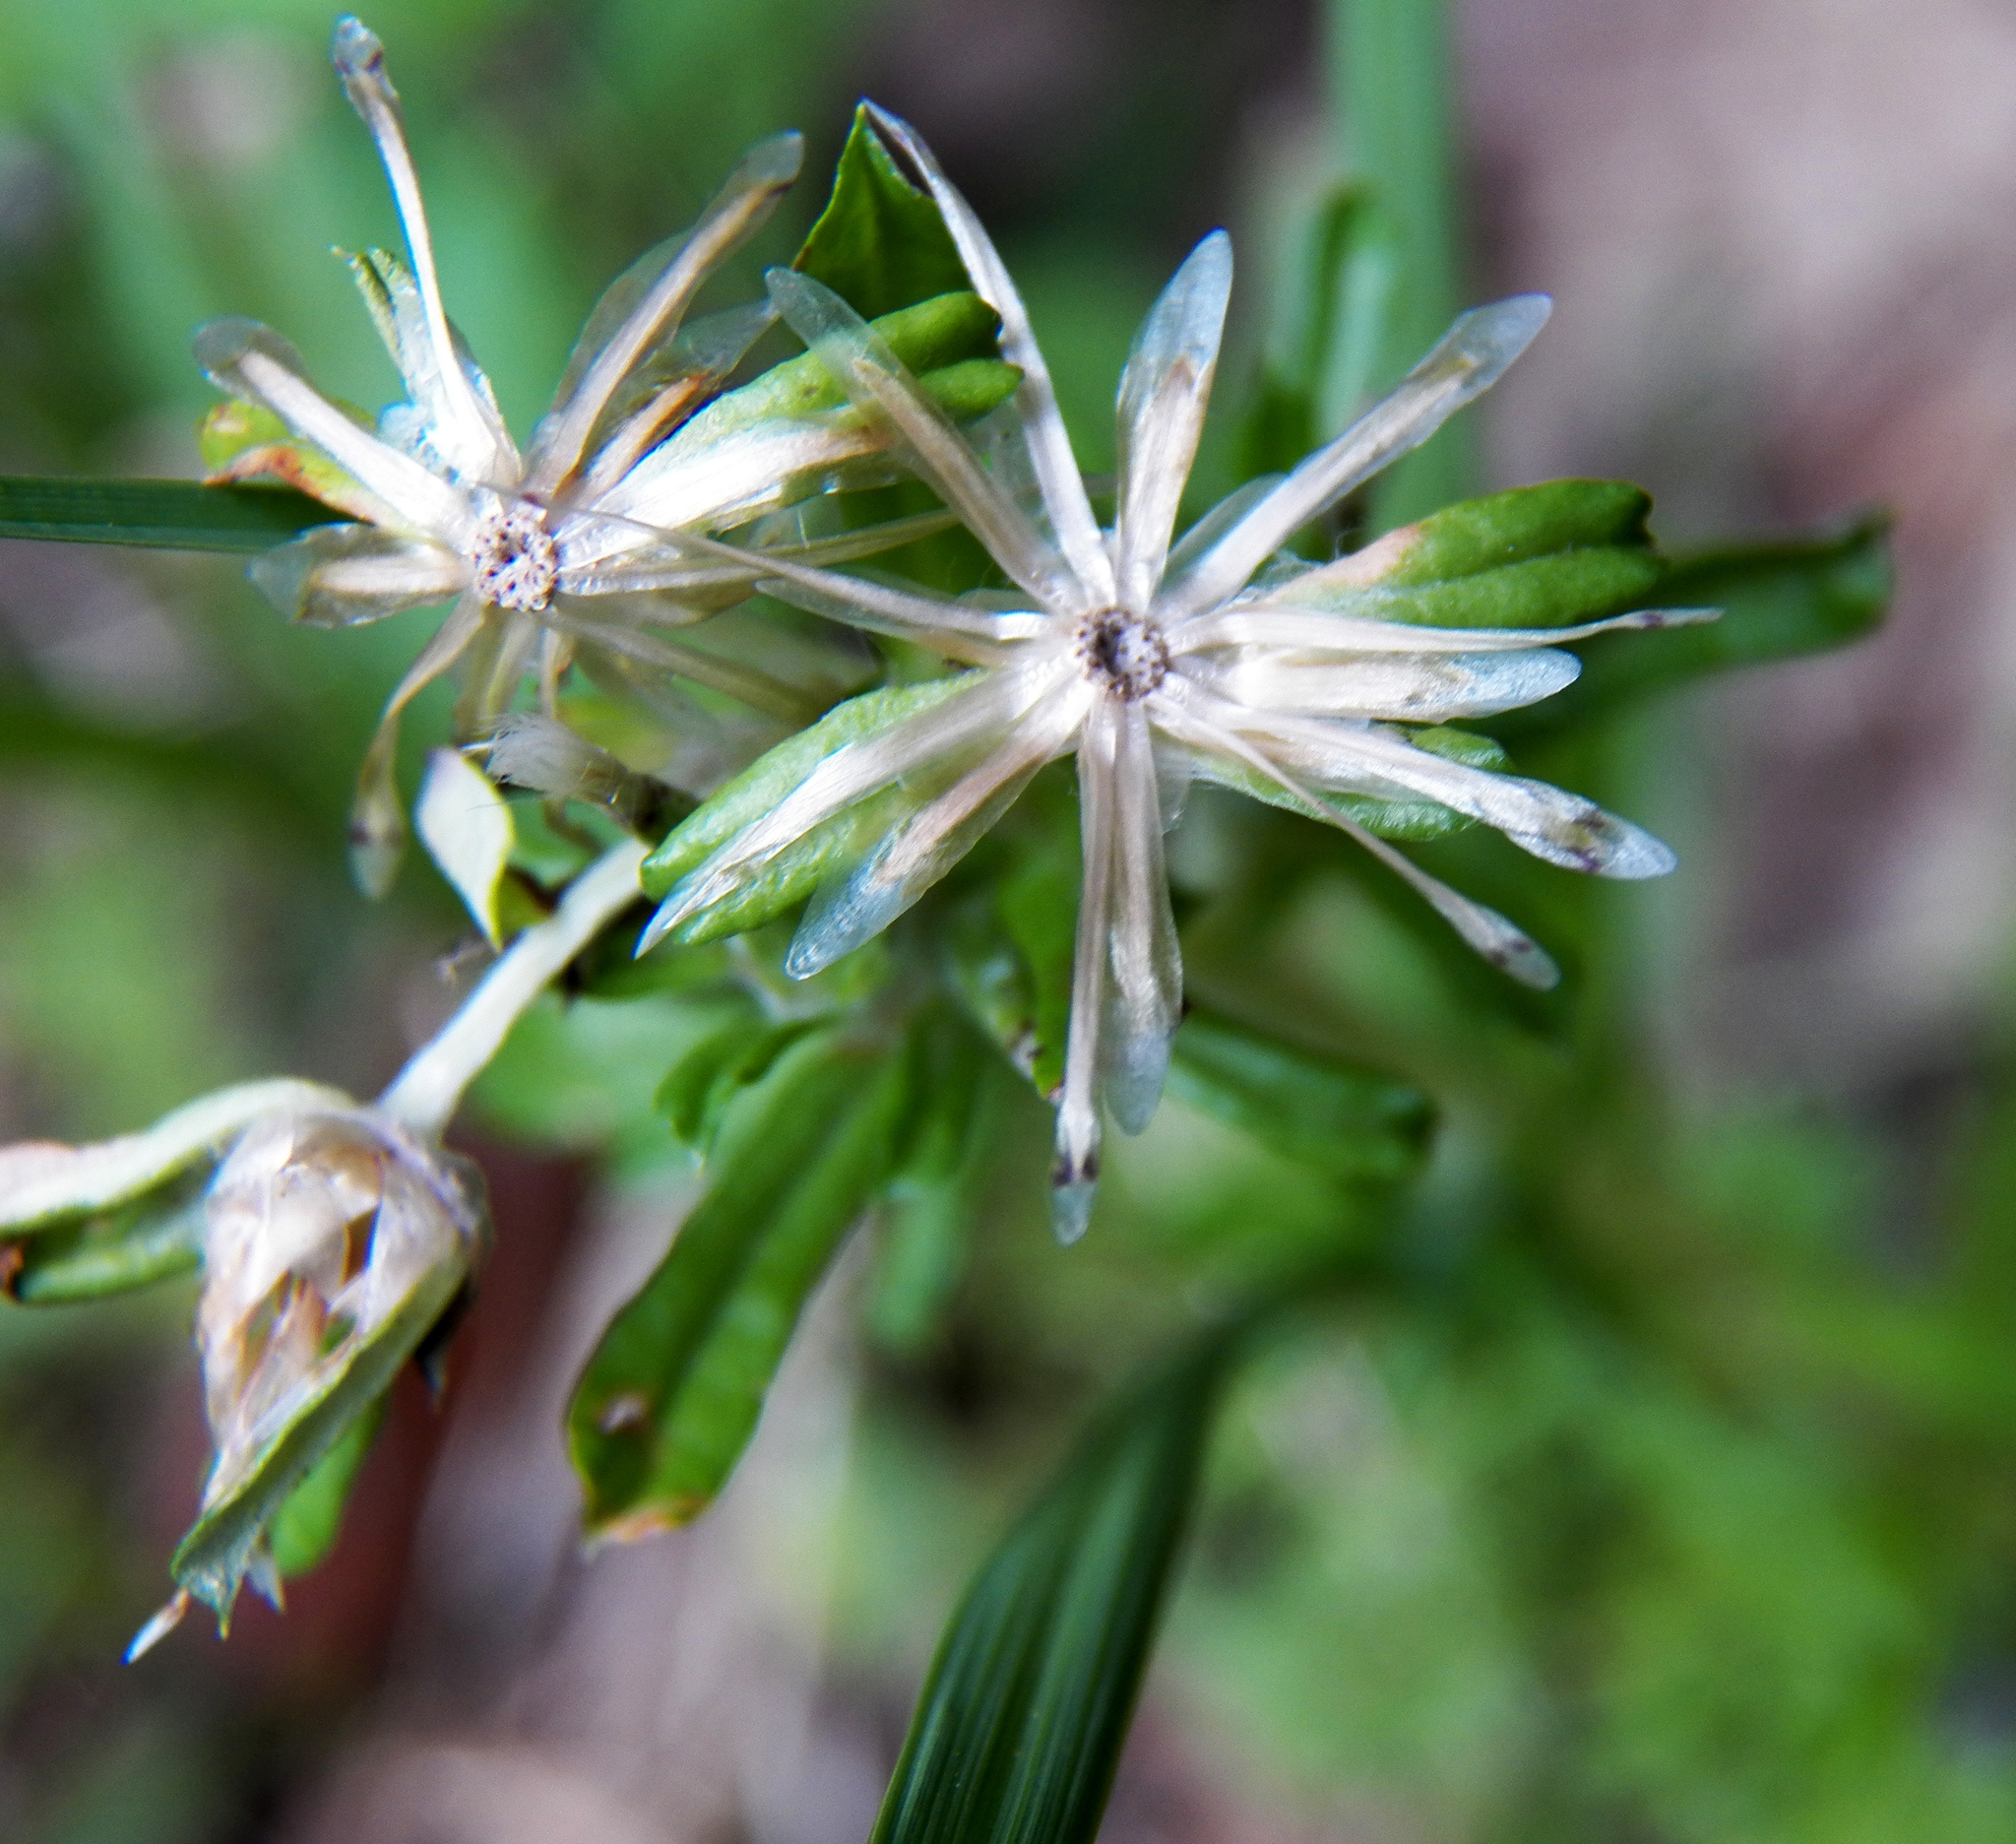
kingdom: Plantae
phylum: Tracheophyta
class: Magnoliopsida
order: Asterales
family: Asteraceae
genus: Facelis
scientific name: Facelis retusa
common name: Annual trampweed
